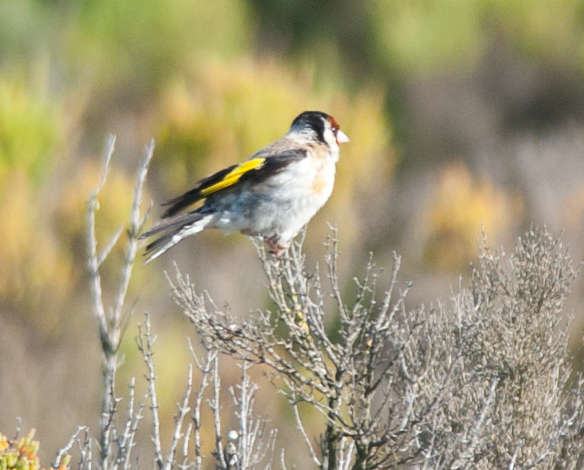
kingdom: Animalia
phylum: Chordata
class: Aves
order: Passeriformes
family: Fringillidae
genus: Carduelis
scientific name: Carduelis carduelis
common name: European goldfinch
